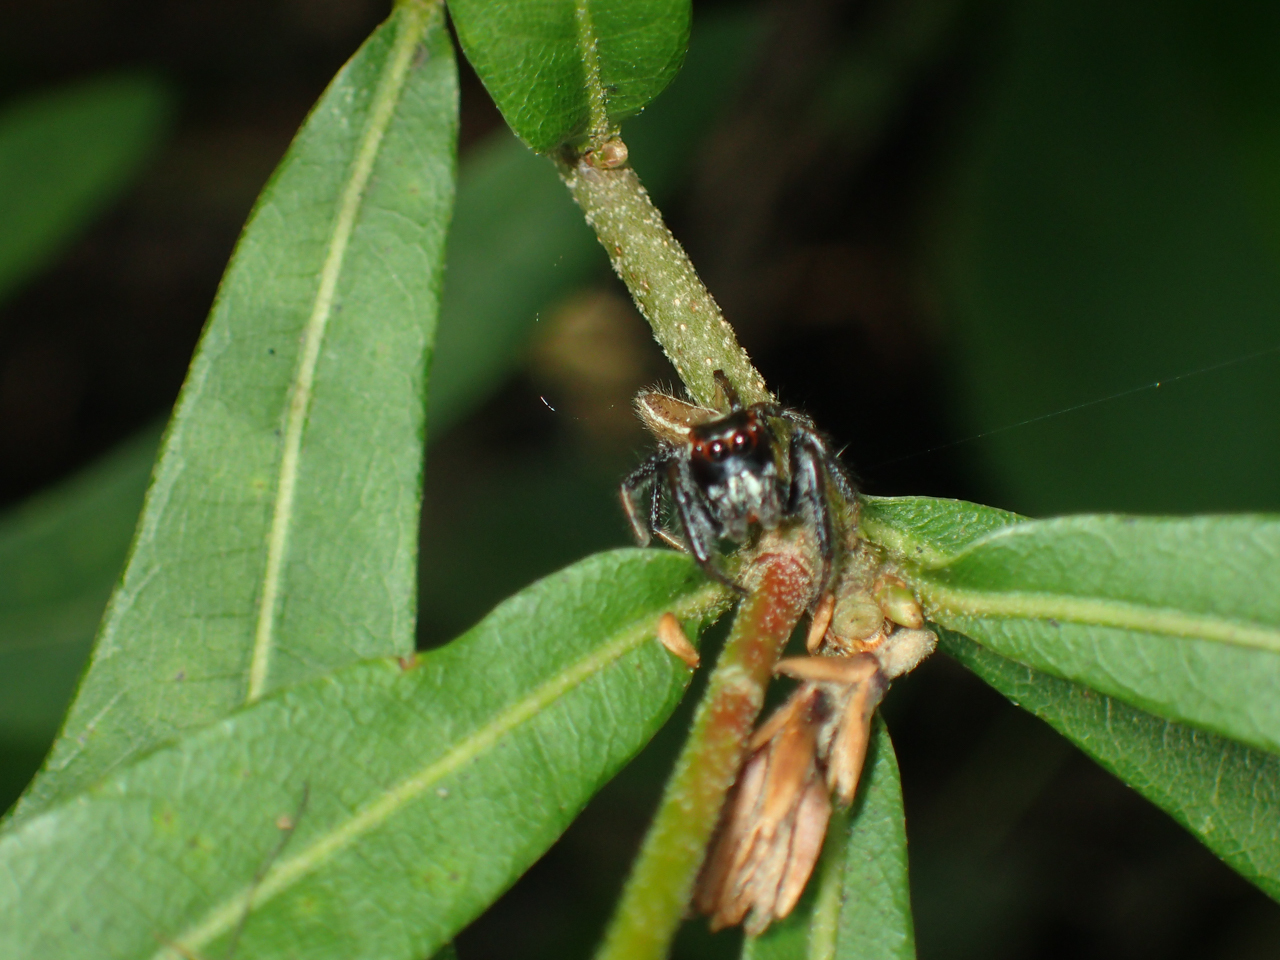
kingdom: Animalia
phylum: Arthropoda
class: Arachnida
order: Araneae
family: Salticidae
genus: Colonus
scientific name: Colonus sylvanus
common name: Jumping spiders
